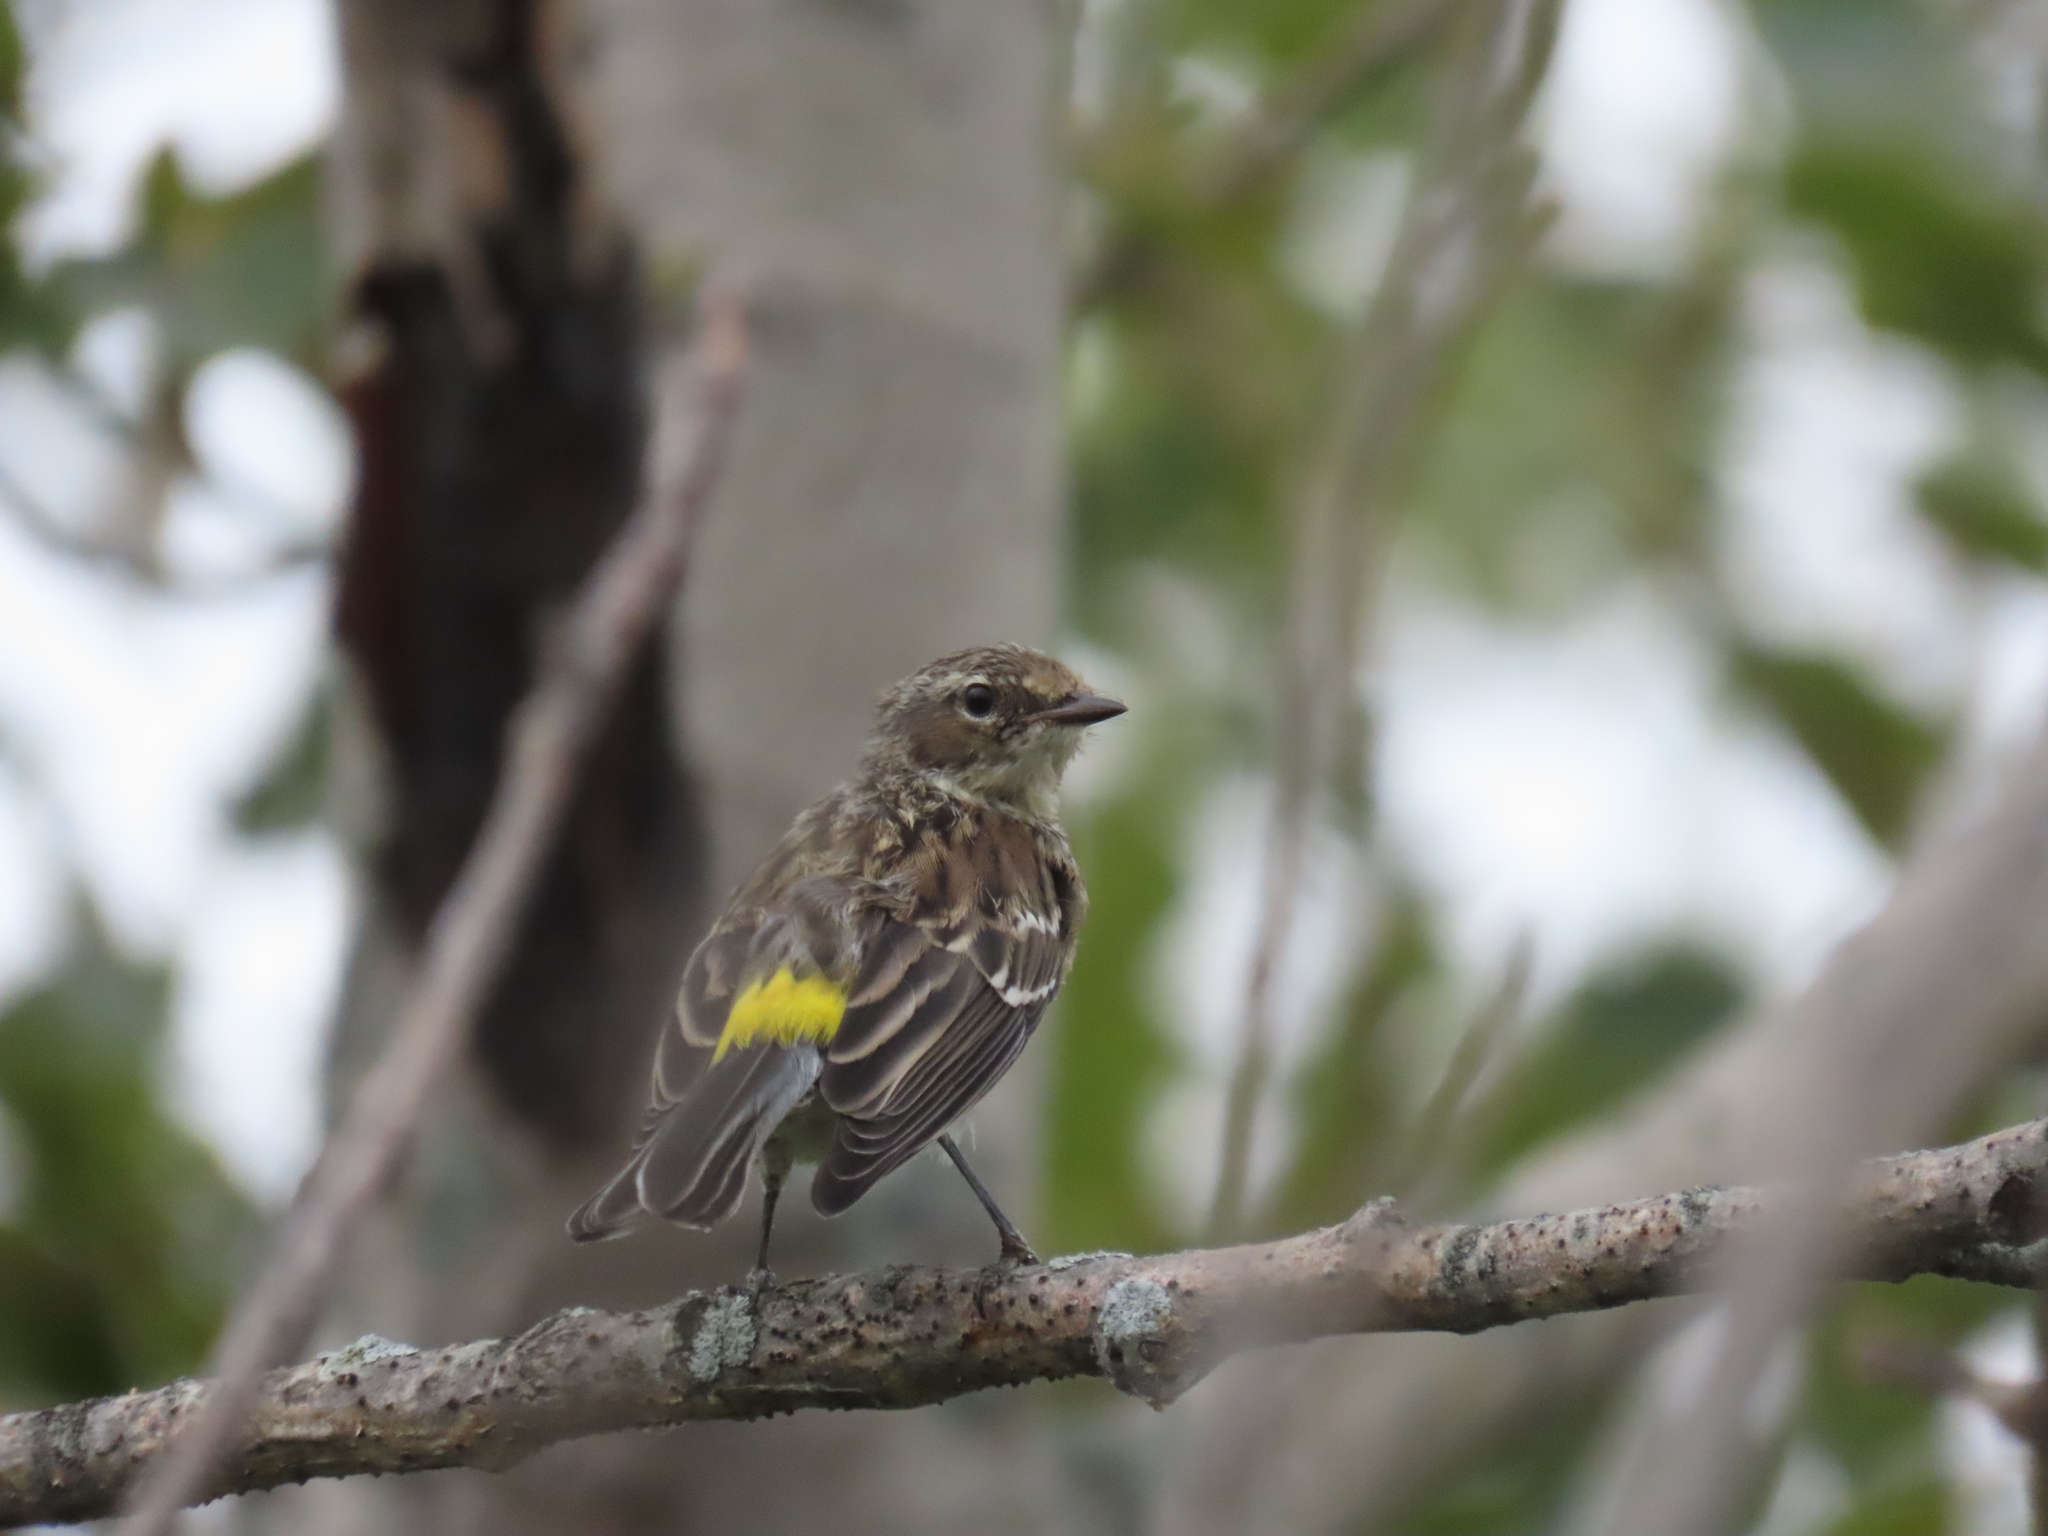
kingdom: Animalia
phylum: Chordata
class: Aves
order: Passeriformes
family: Parulidae
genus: Setophaga
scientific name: Setophaga coronata
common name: Myrtle warbler
